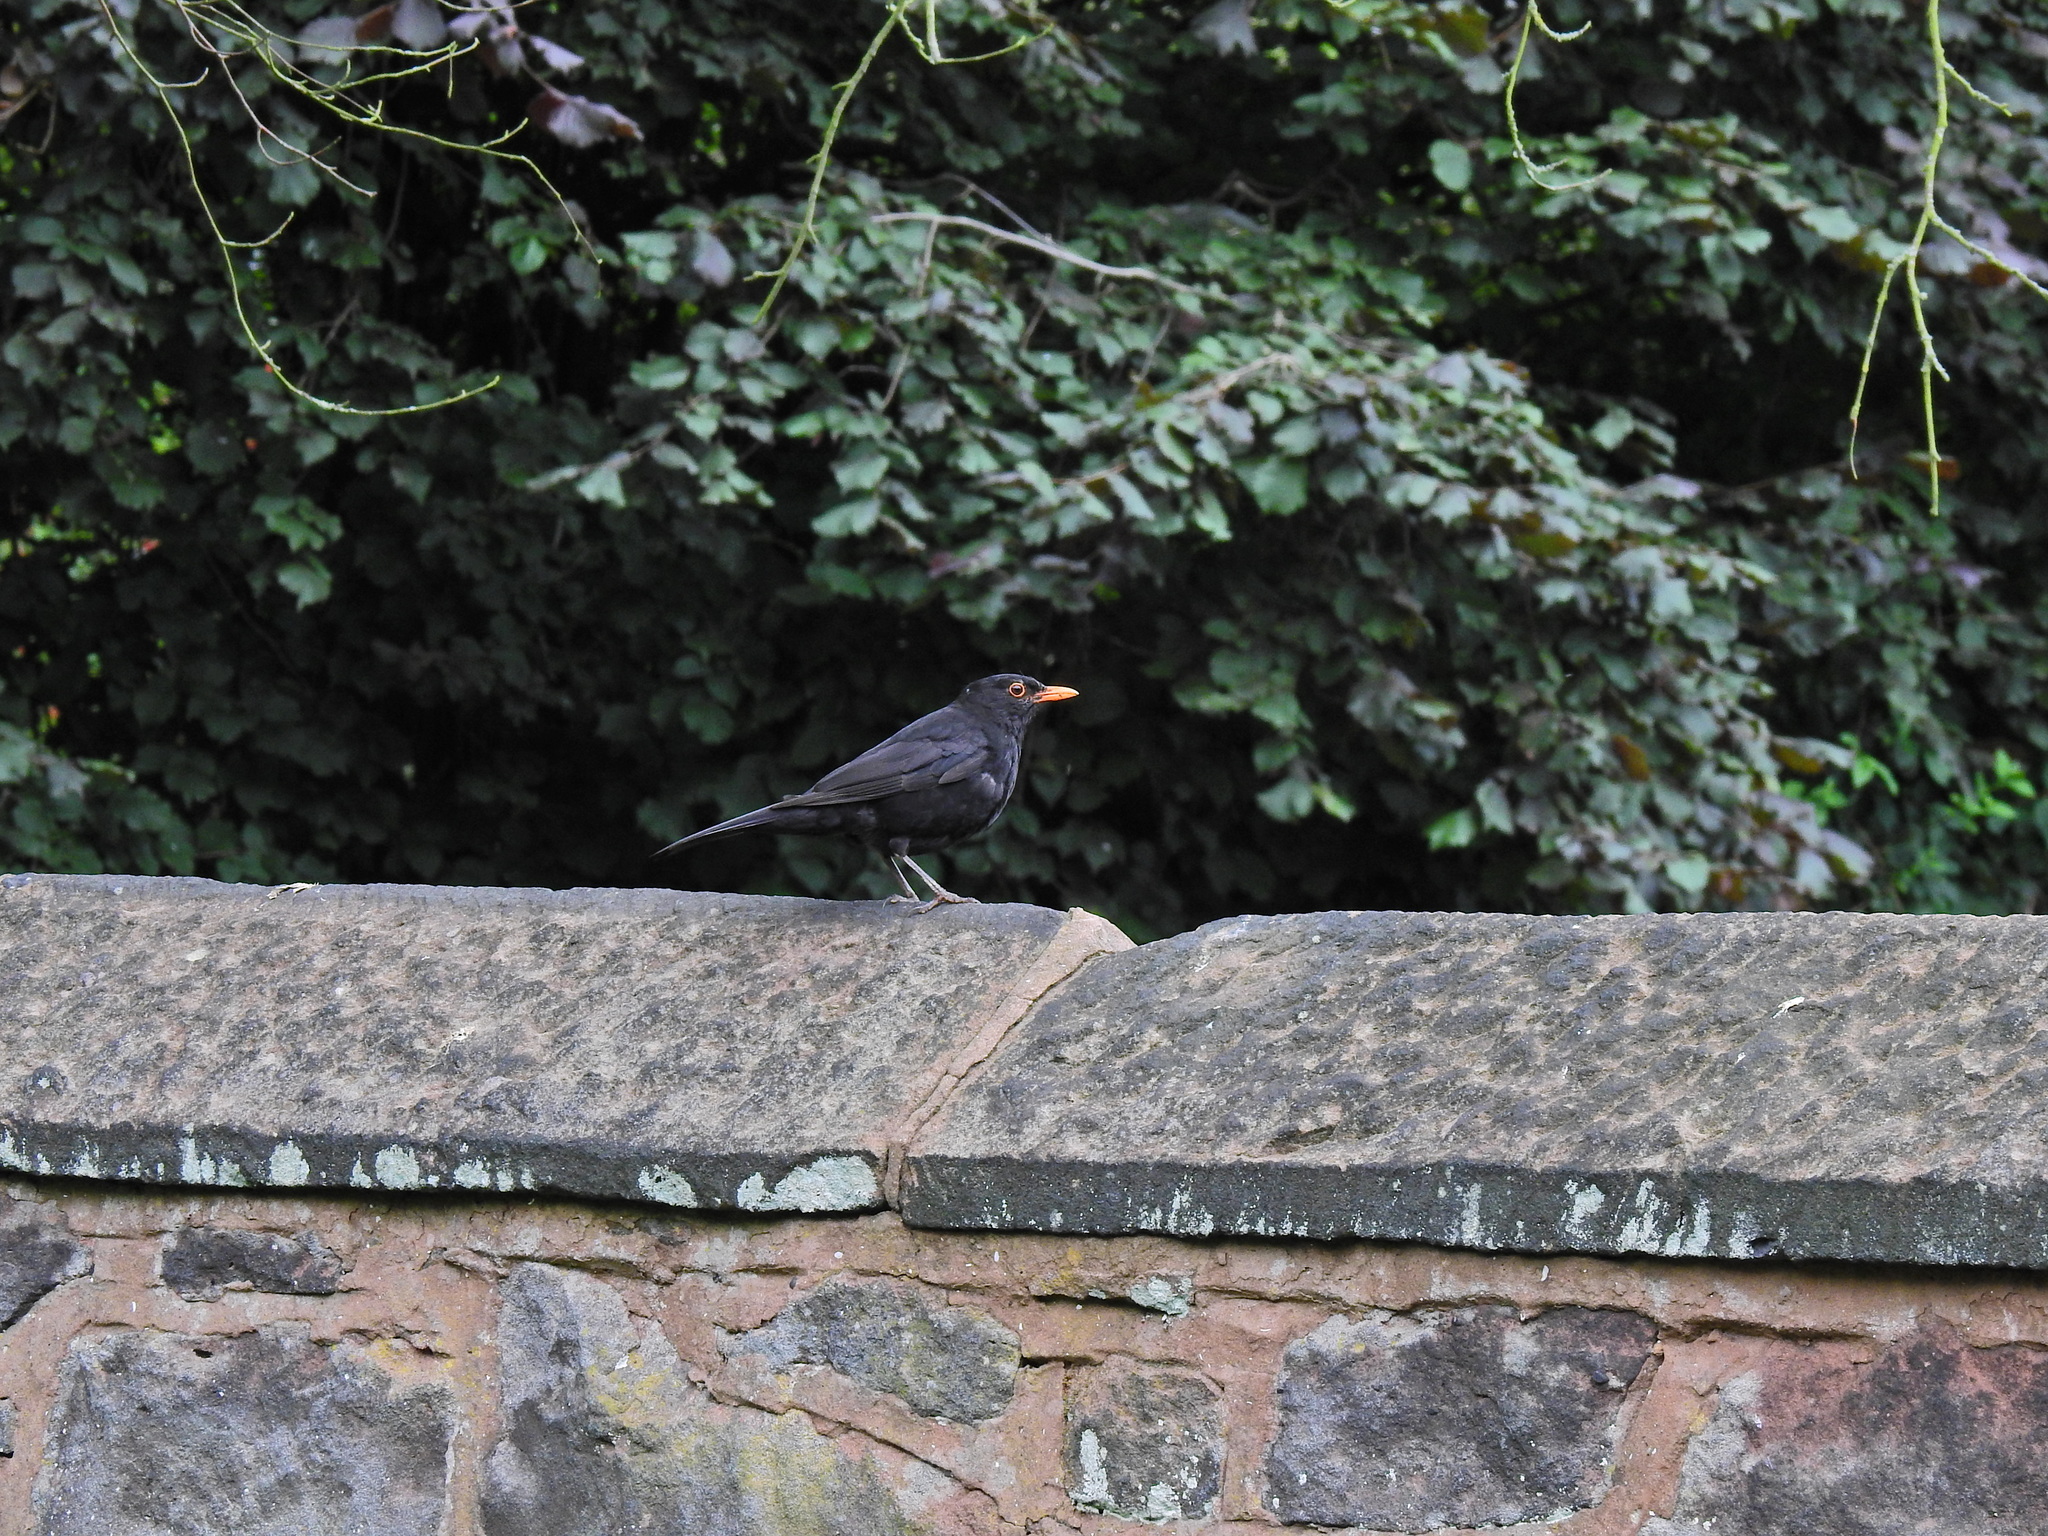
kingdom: Animalia
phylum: Chordata
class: Aves
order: Passeriformes
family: Turdidae
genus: Turdus
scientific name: Turdus merula
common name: Common blackbird
